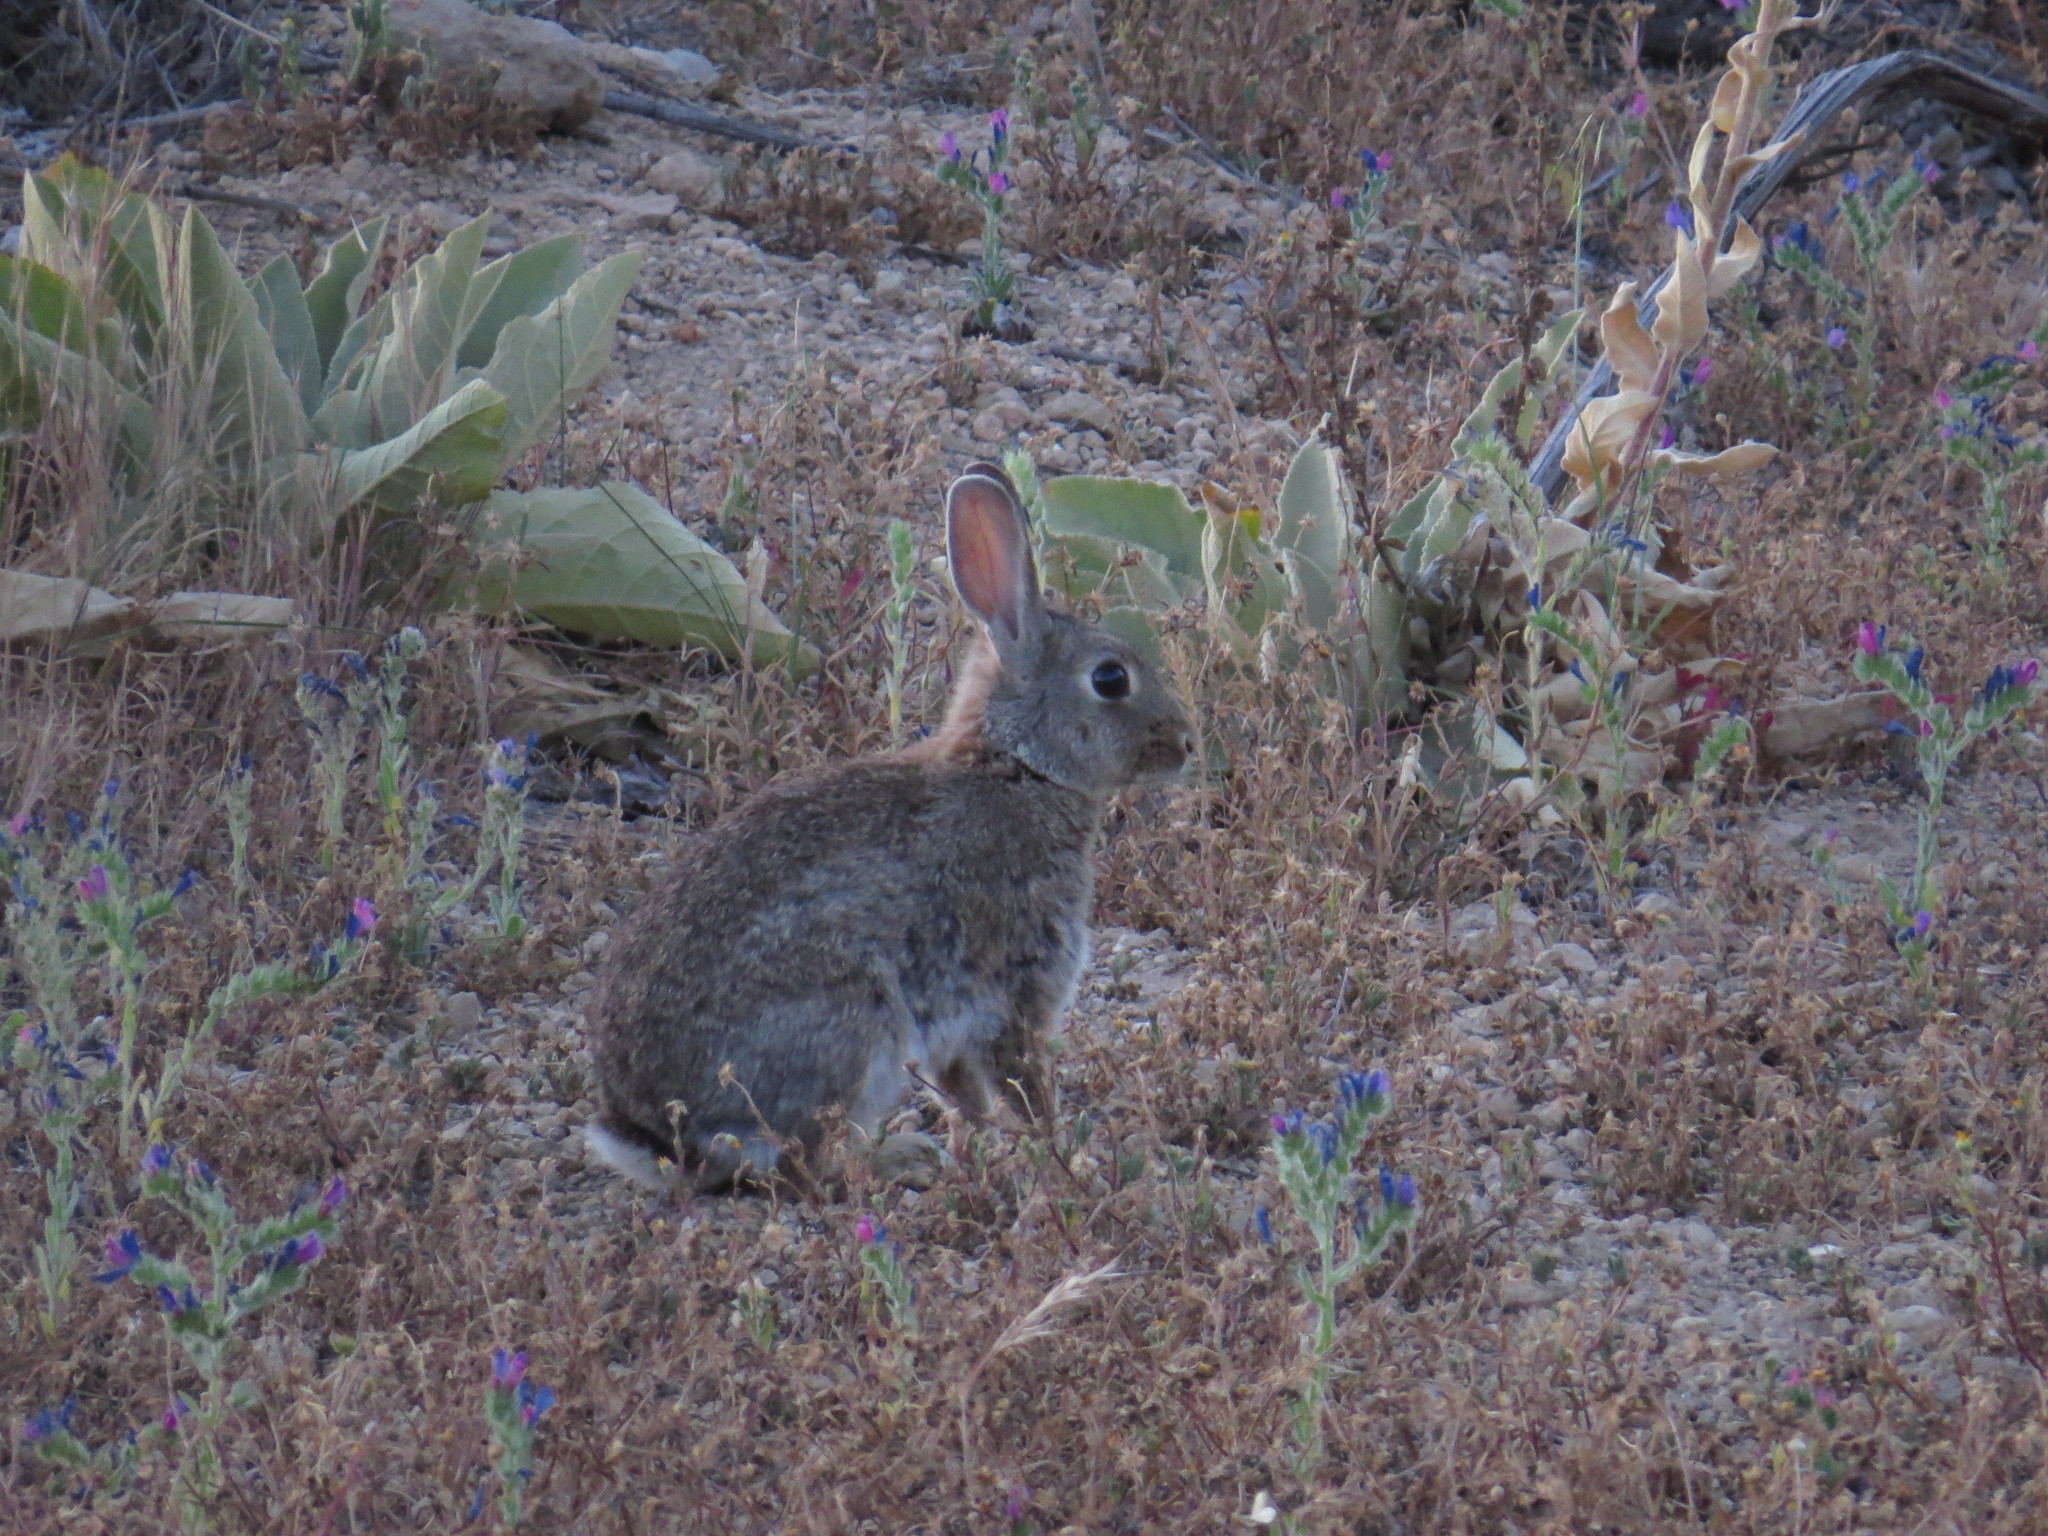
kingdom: Animalia
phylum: Chordata
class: Mammalia
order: Lagomorpha
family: Leporidae
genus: Oryctolagus
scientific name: Oryctolagus cuniculus
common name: European rabbit
